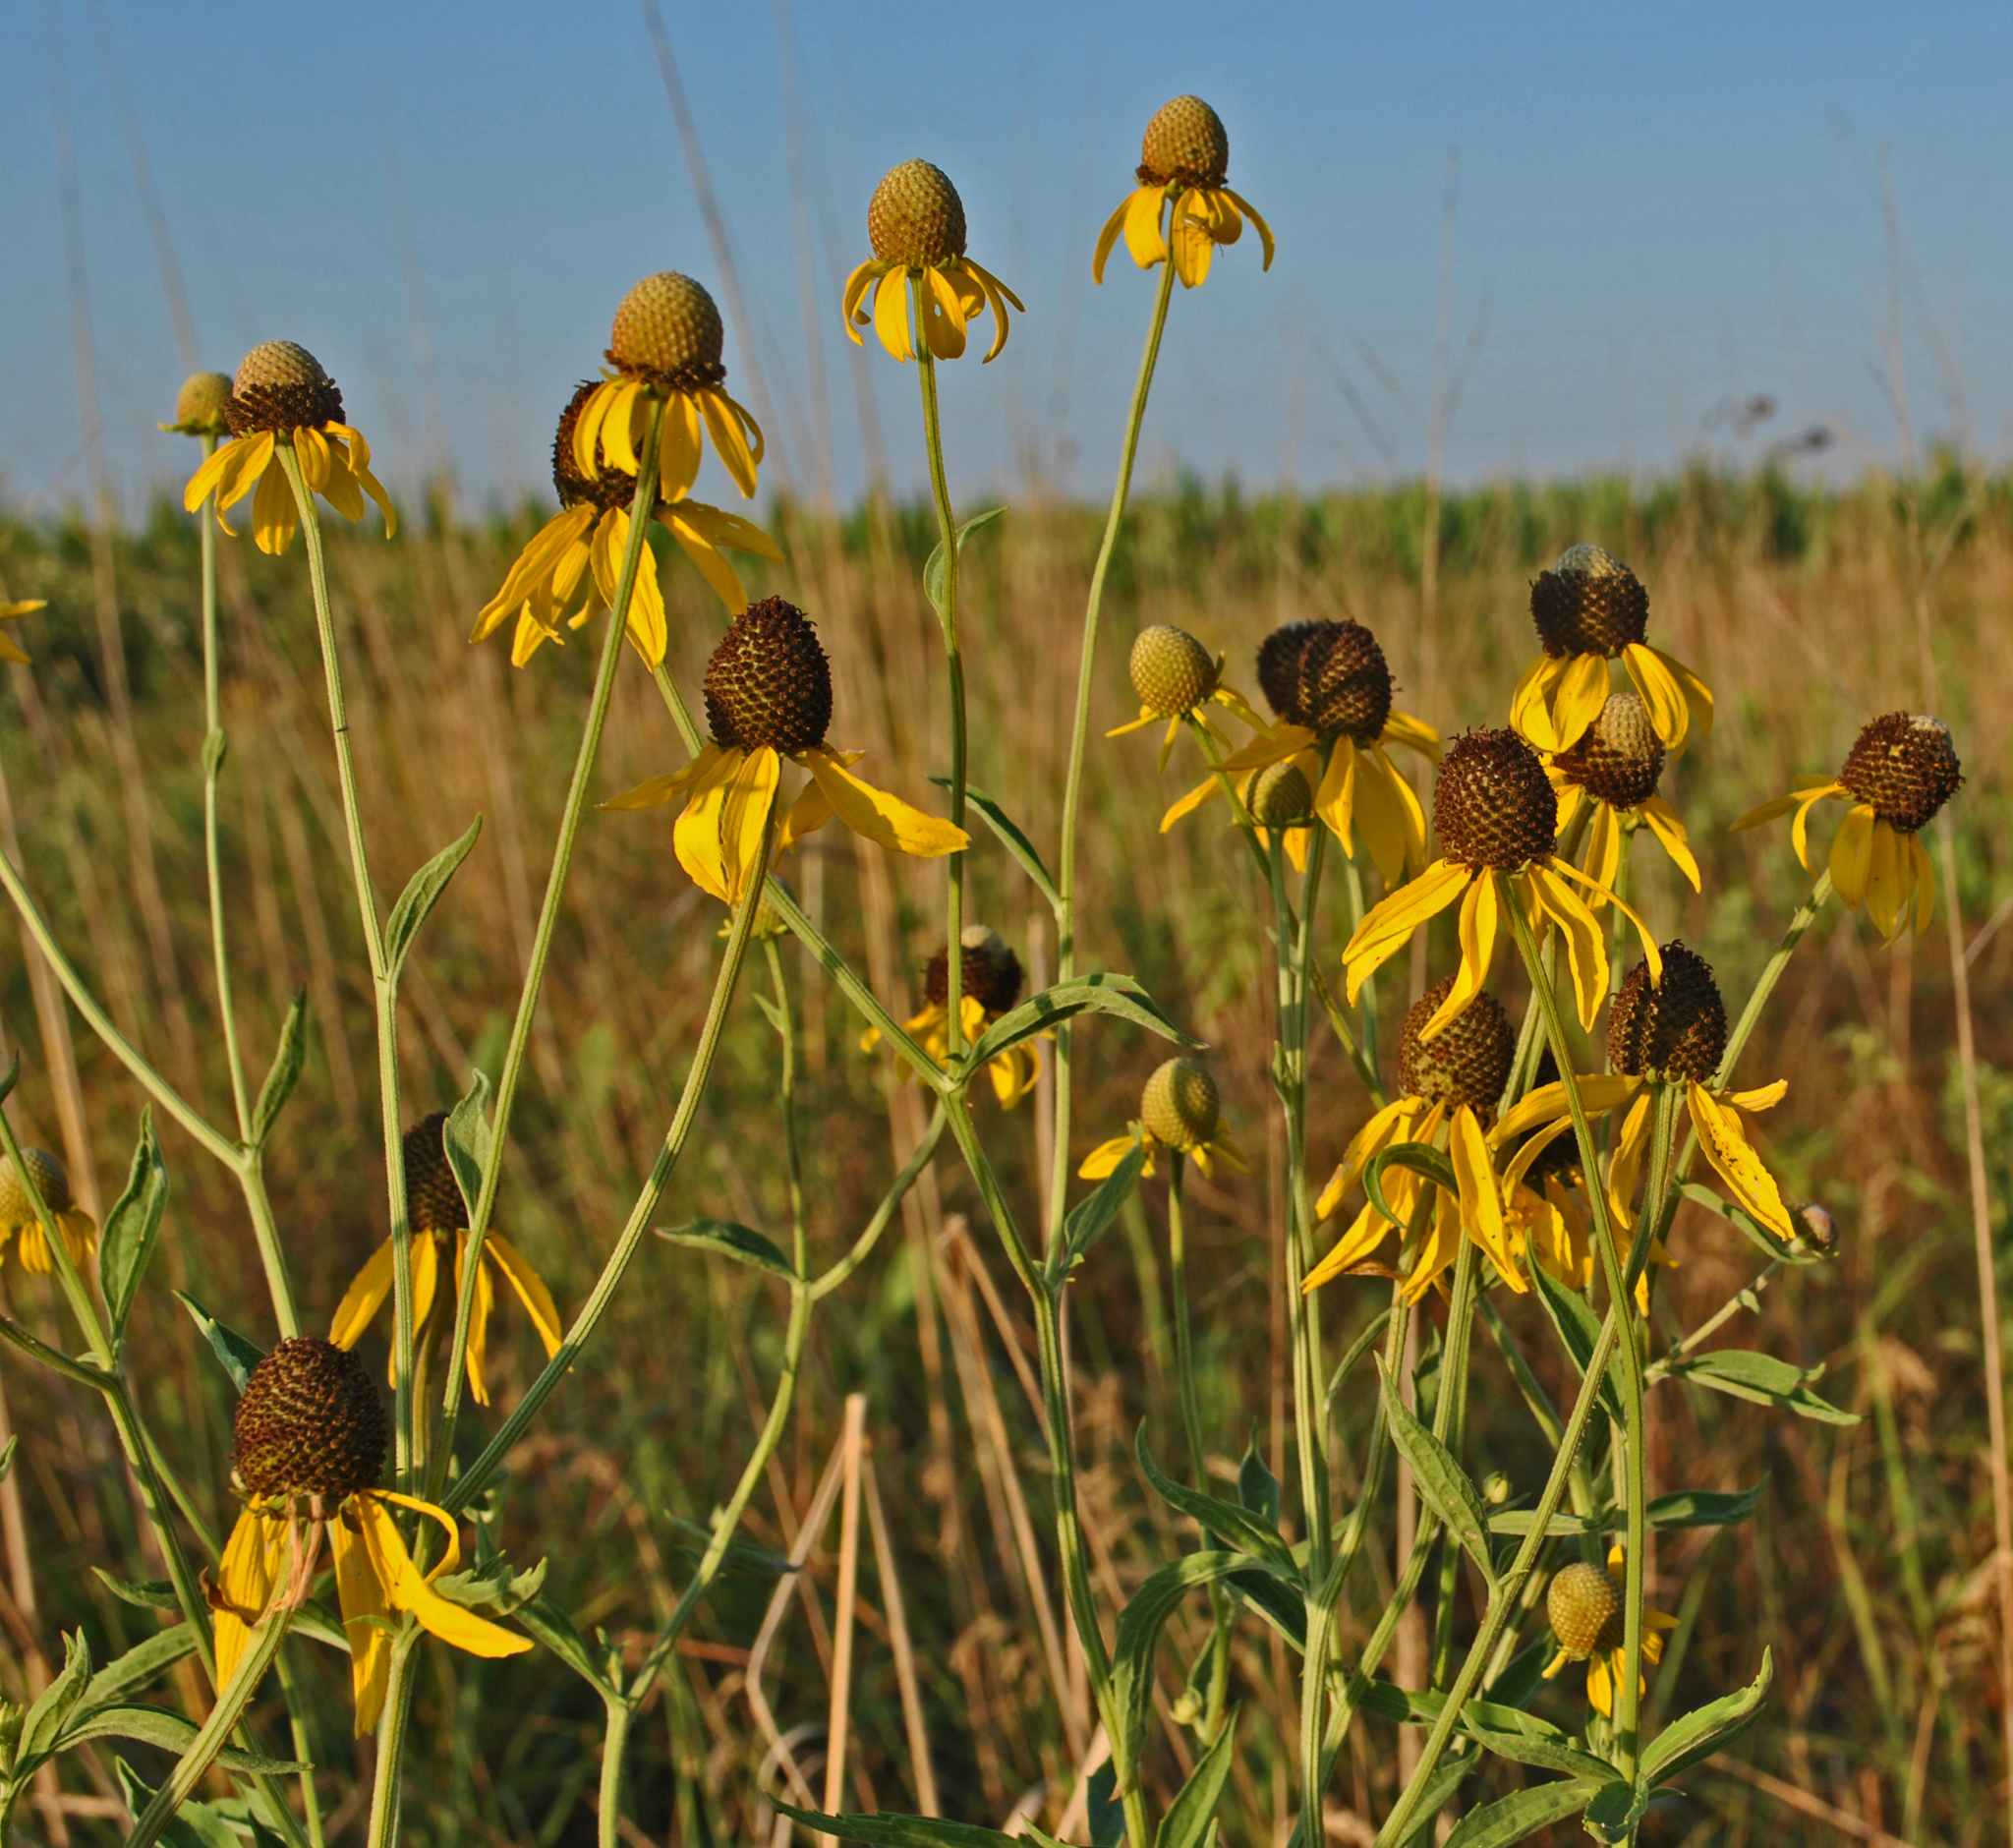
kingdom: Plantae
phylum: Tracheophyta
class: Magnoliopsida
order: Asterales
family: Asteraceae
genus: Ratibida
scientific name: Ratibida pinnata
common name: Drooping prairie-coneflower
